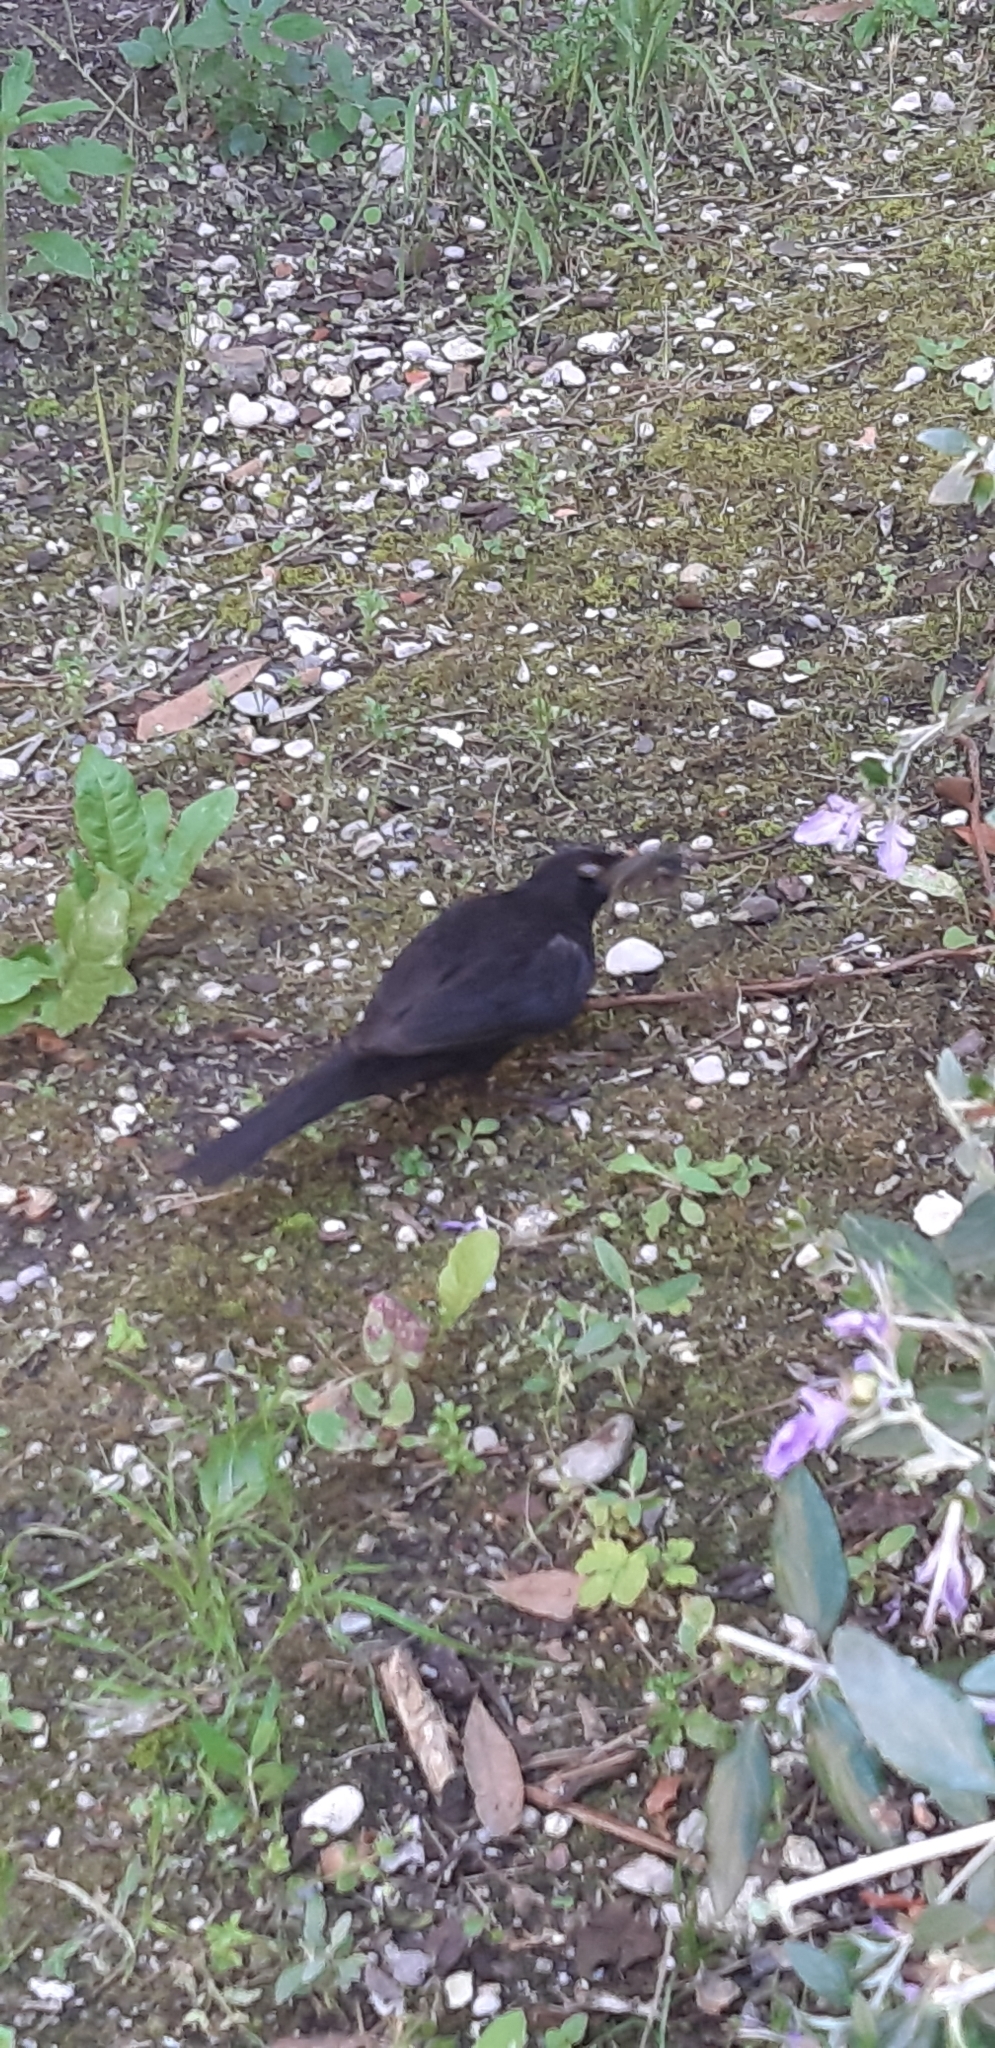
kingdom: Animalia
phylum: Chordata
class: Aves
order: Passeriformes
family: Turdidae
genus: Turdus
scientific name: Turdus merula
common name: Common blackbird
